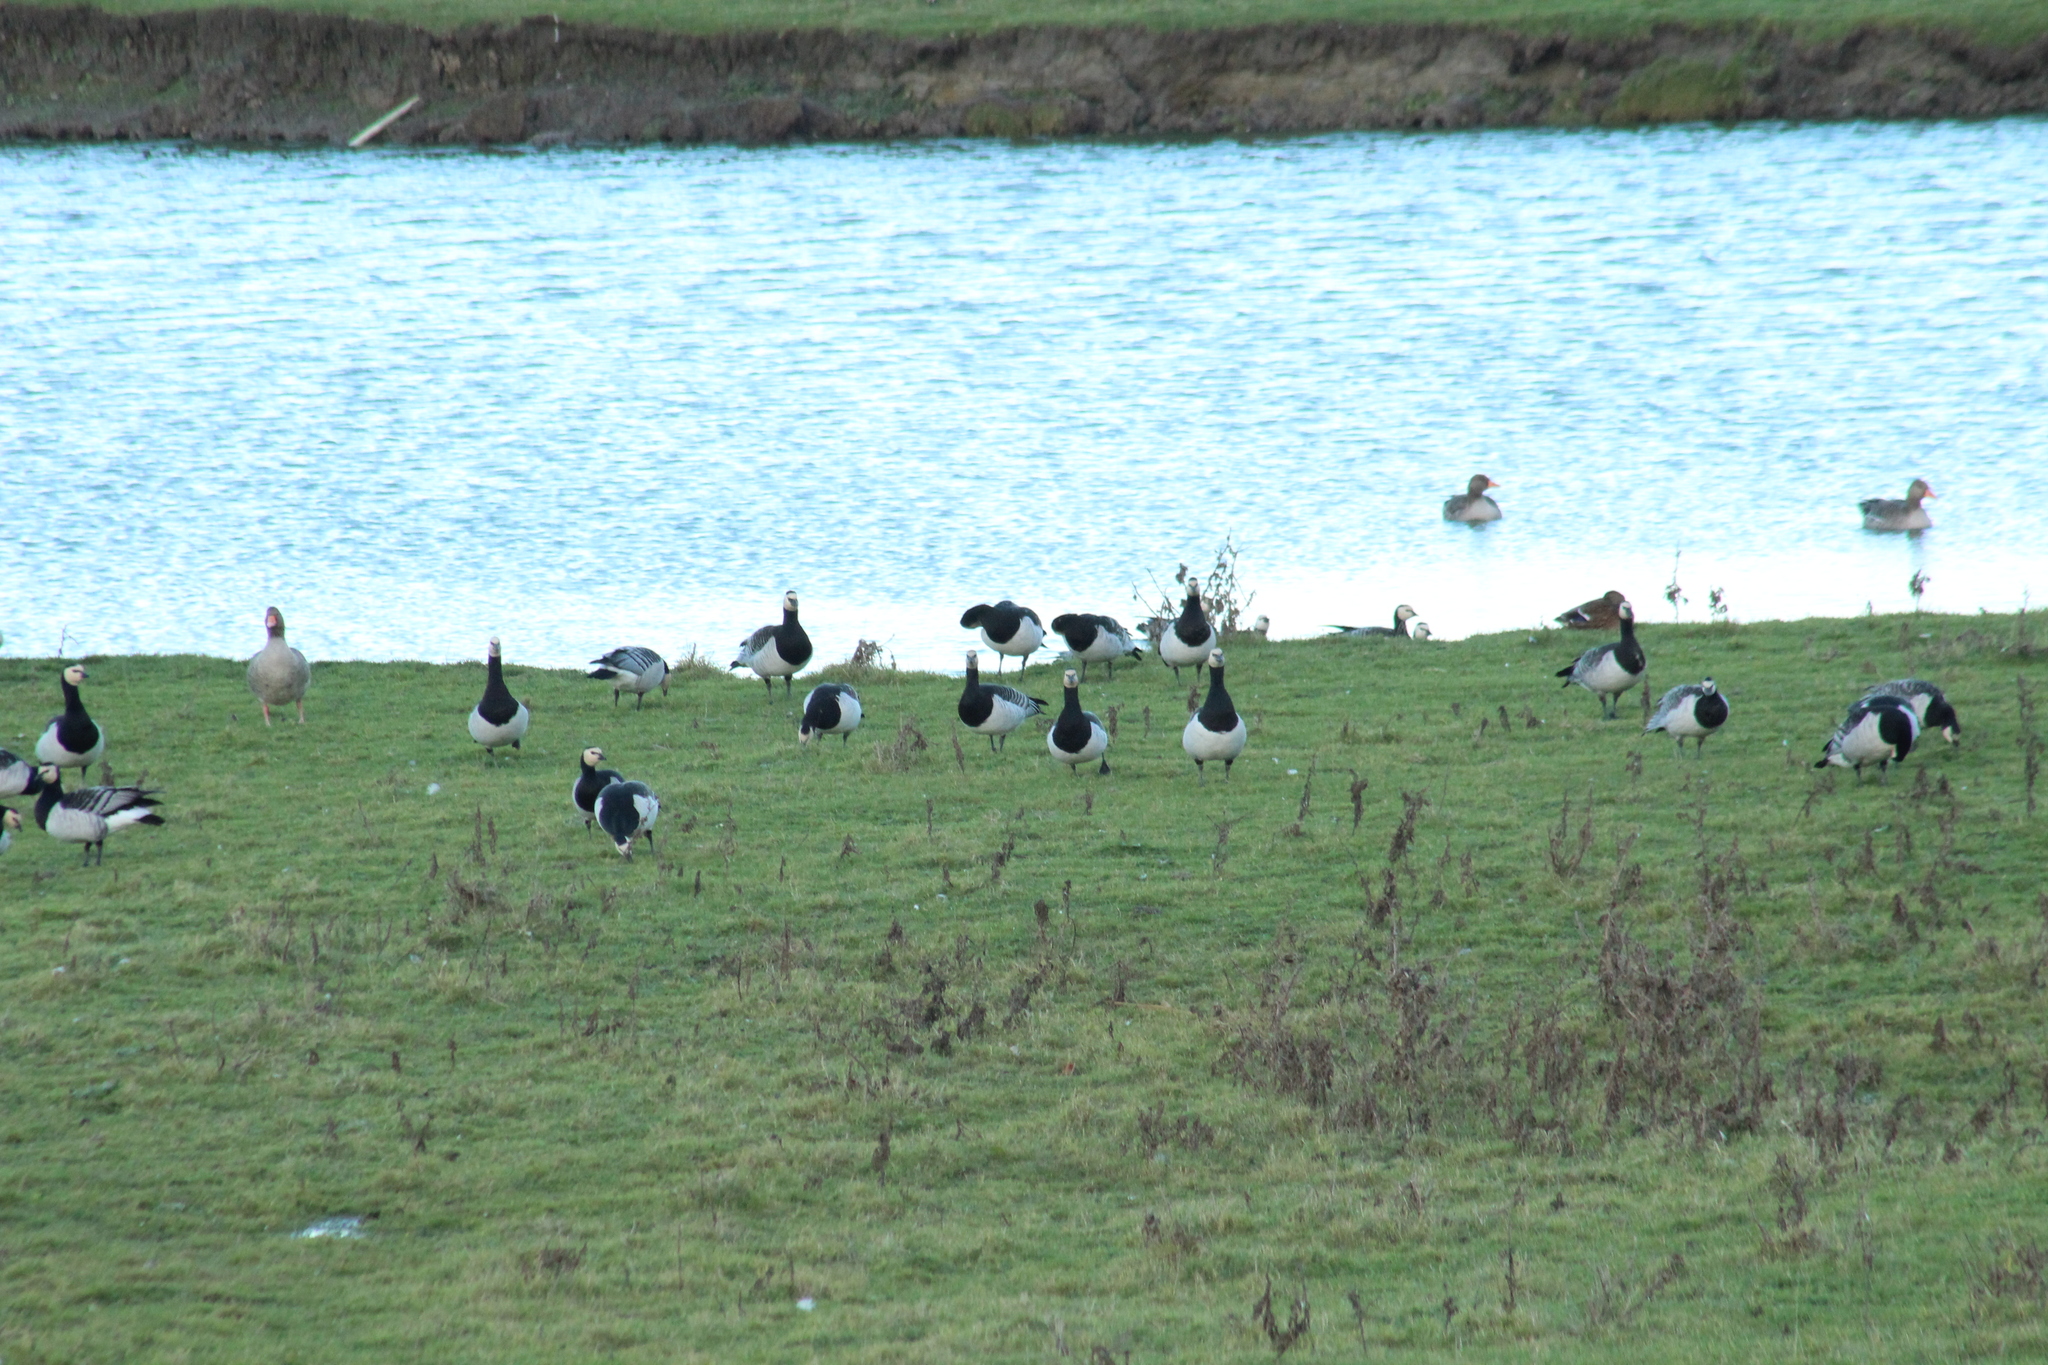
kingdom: Animalia
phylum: Chordata
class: Aves
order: Anseriformes
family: Anatidae
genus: Branta
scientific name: Branta leucopsis
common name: Barnacle goose
